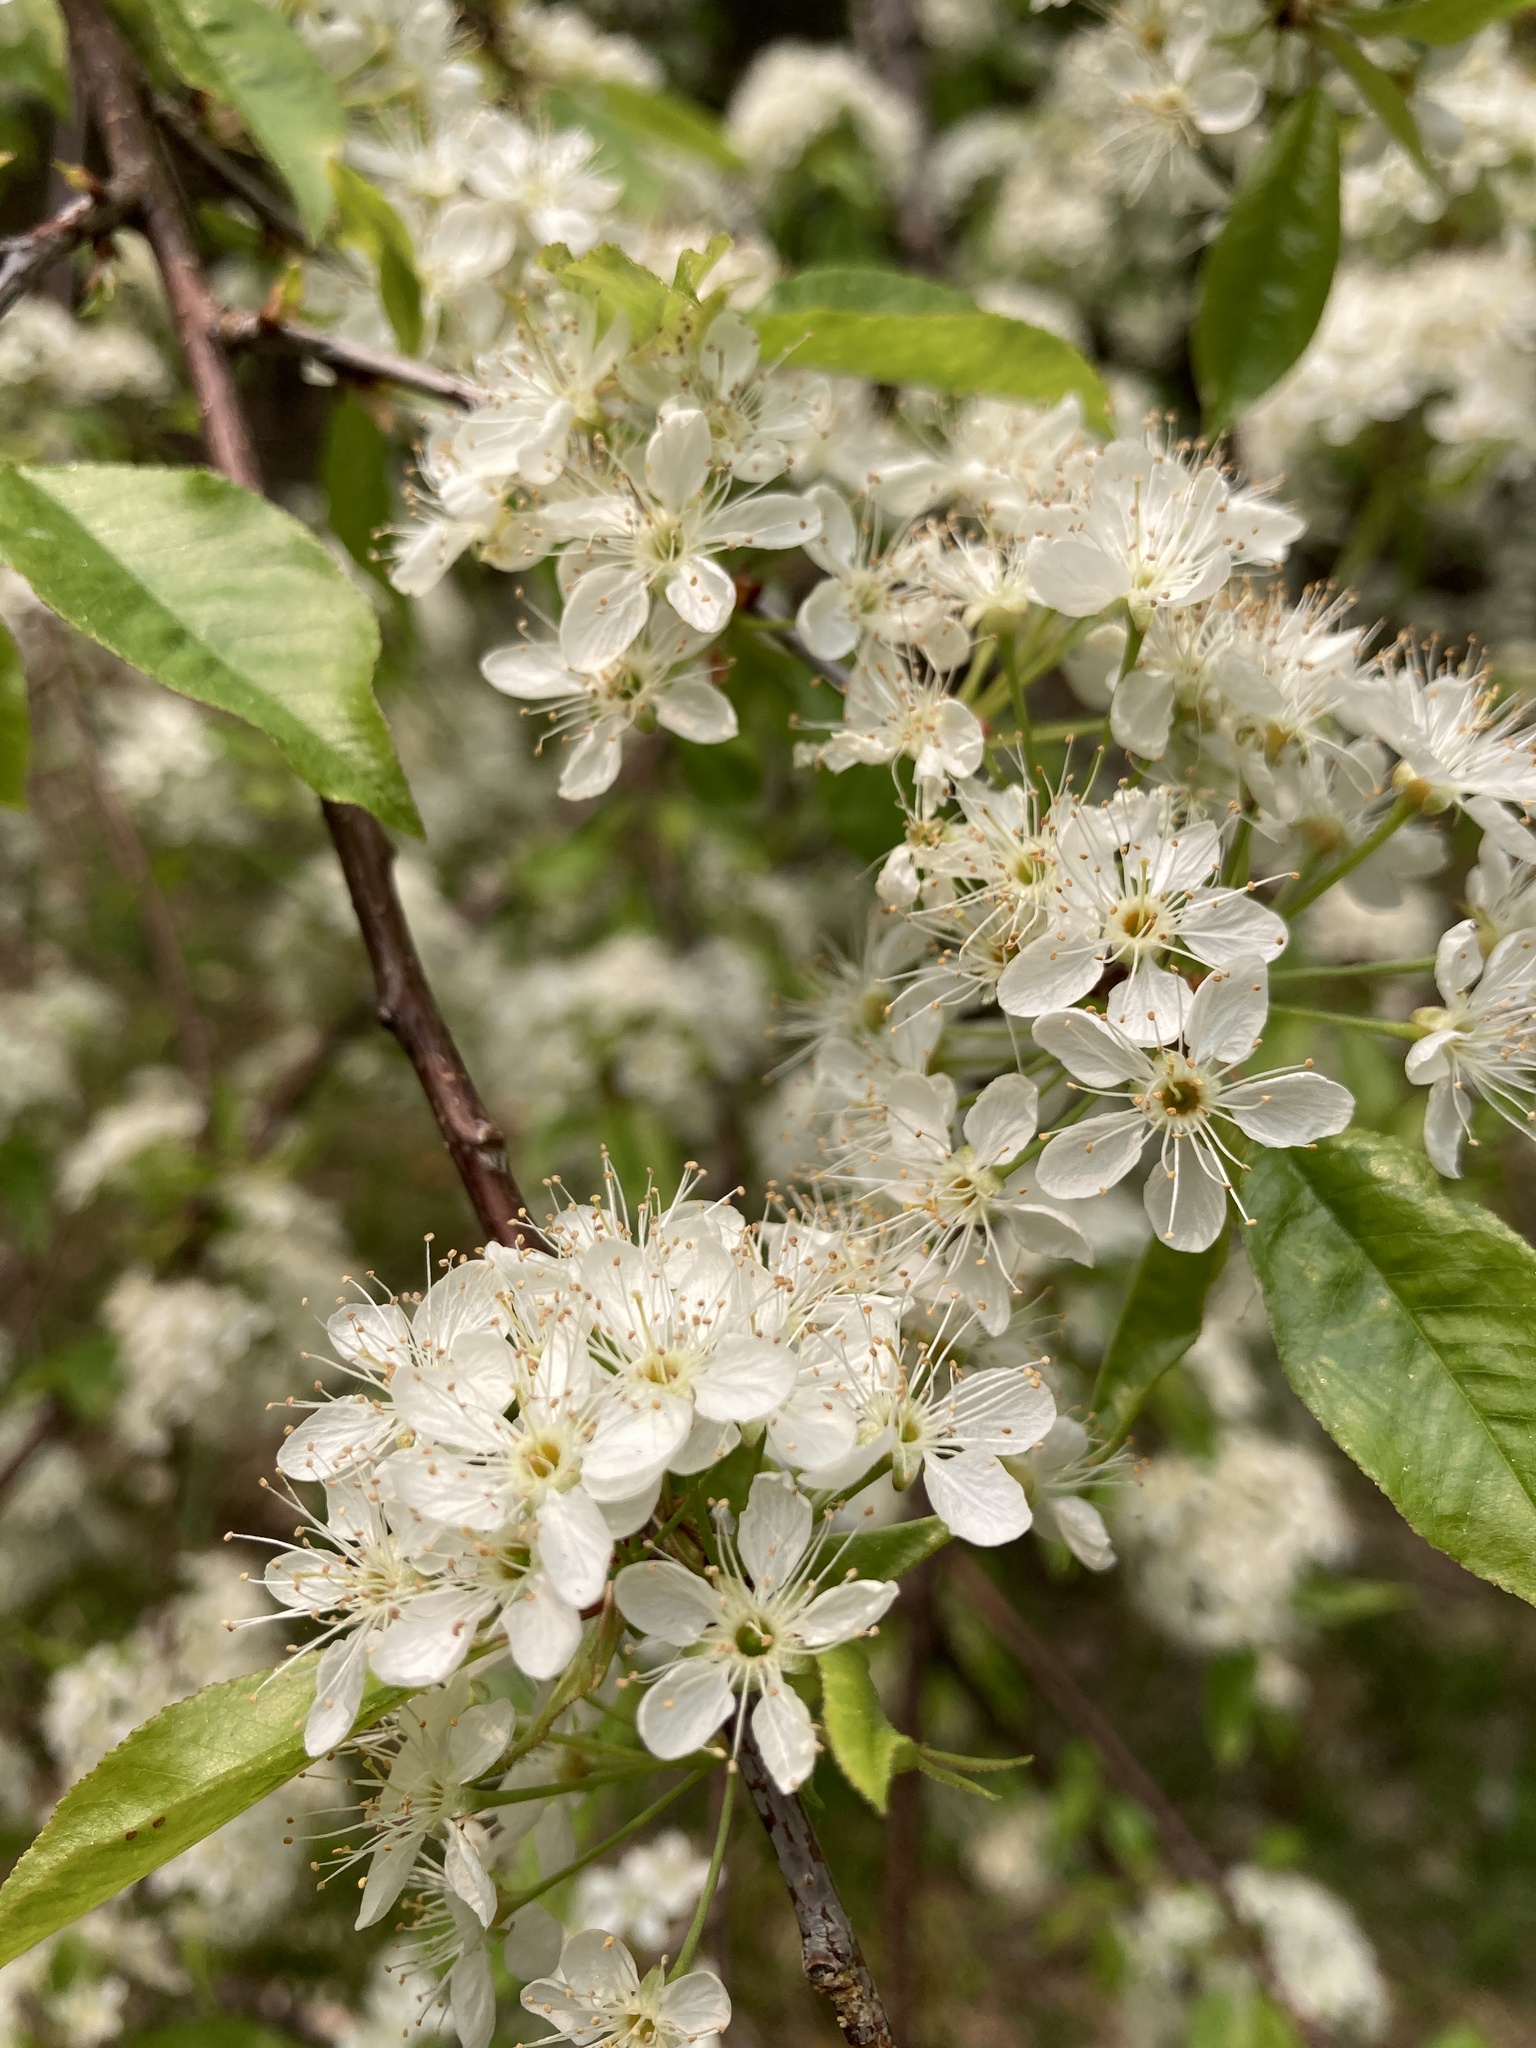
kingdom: Plantae
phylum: Tracheophyta
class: Magnoliopsida
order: Rosales
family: Rosaceae
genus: Prunus
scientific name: Prunus pensylvanica
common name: Pin cherry
